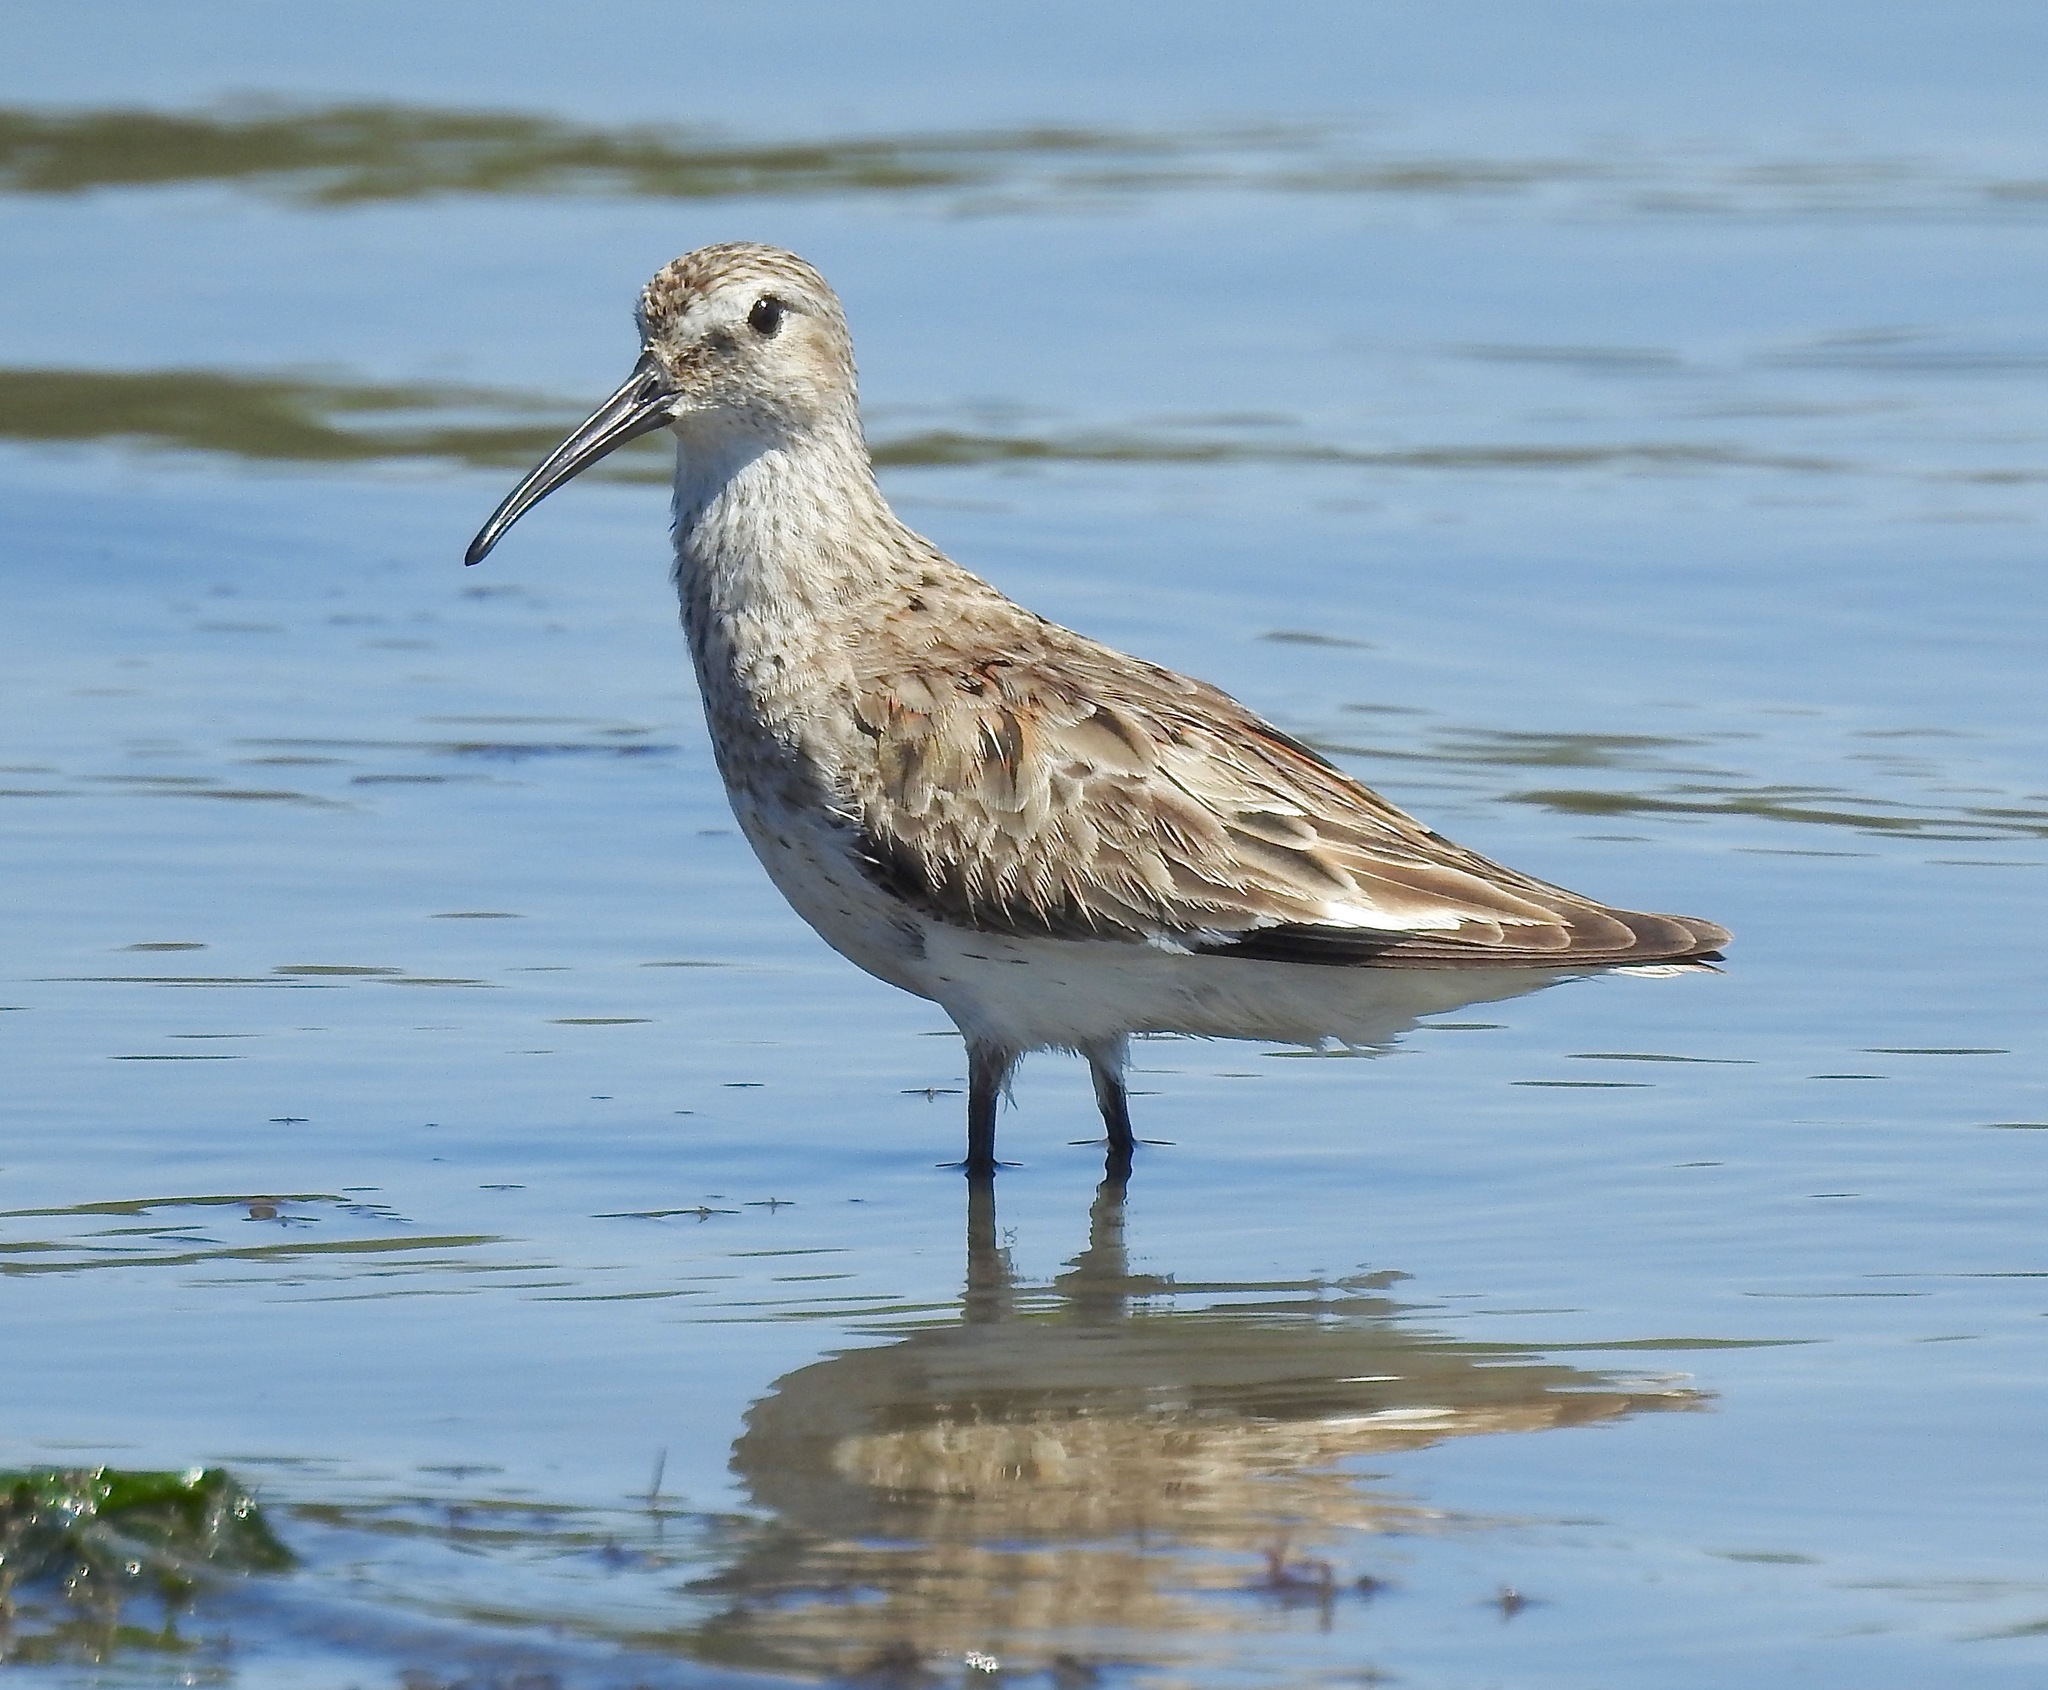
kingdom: Animalia
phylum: Chordata
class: Aves
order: Charadriiformes
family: Scolopacidae
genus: Calidris
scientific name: Calidris himantopus
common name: Stilt sandpiper
